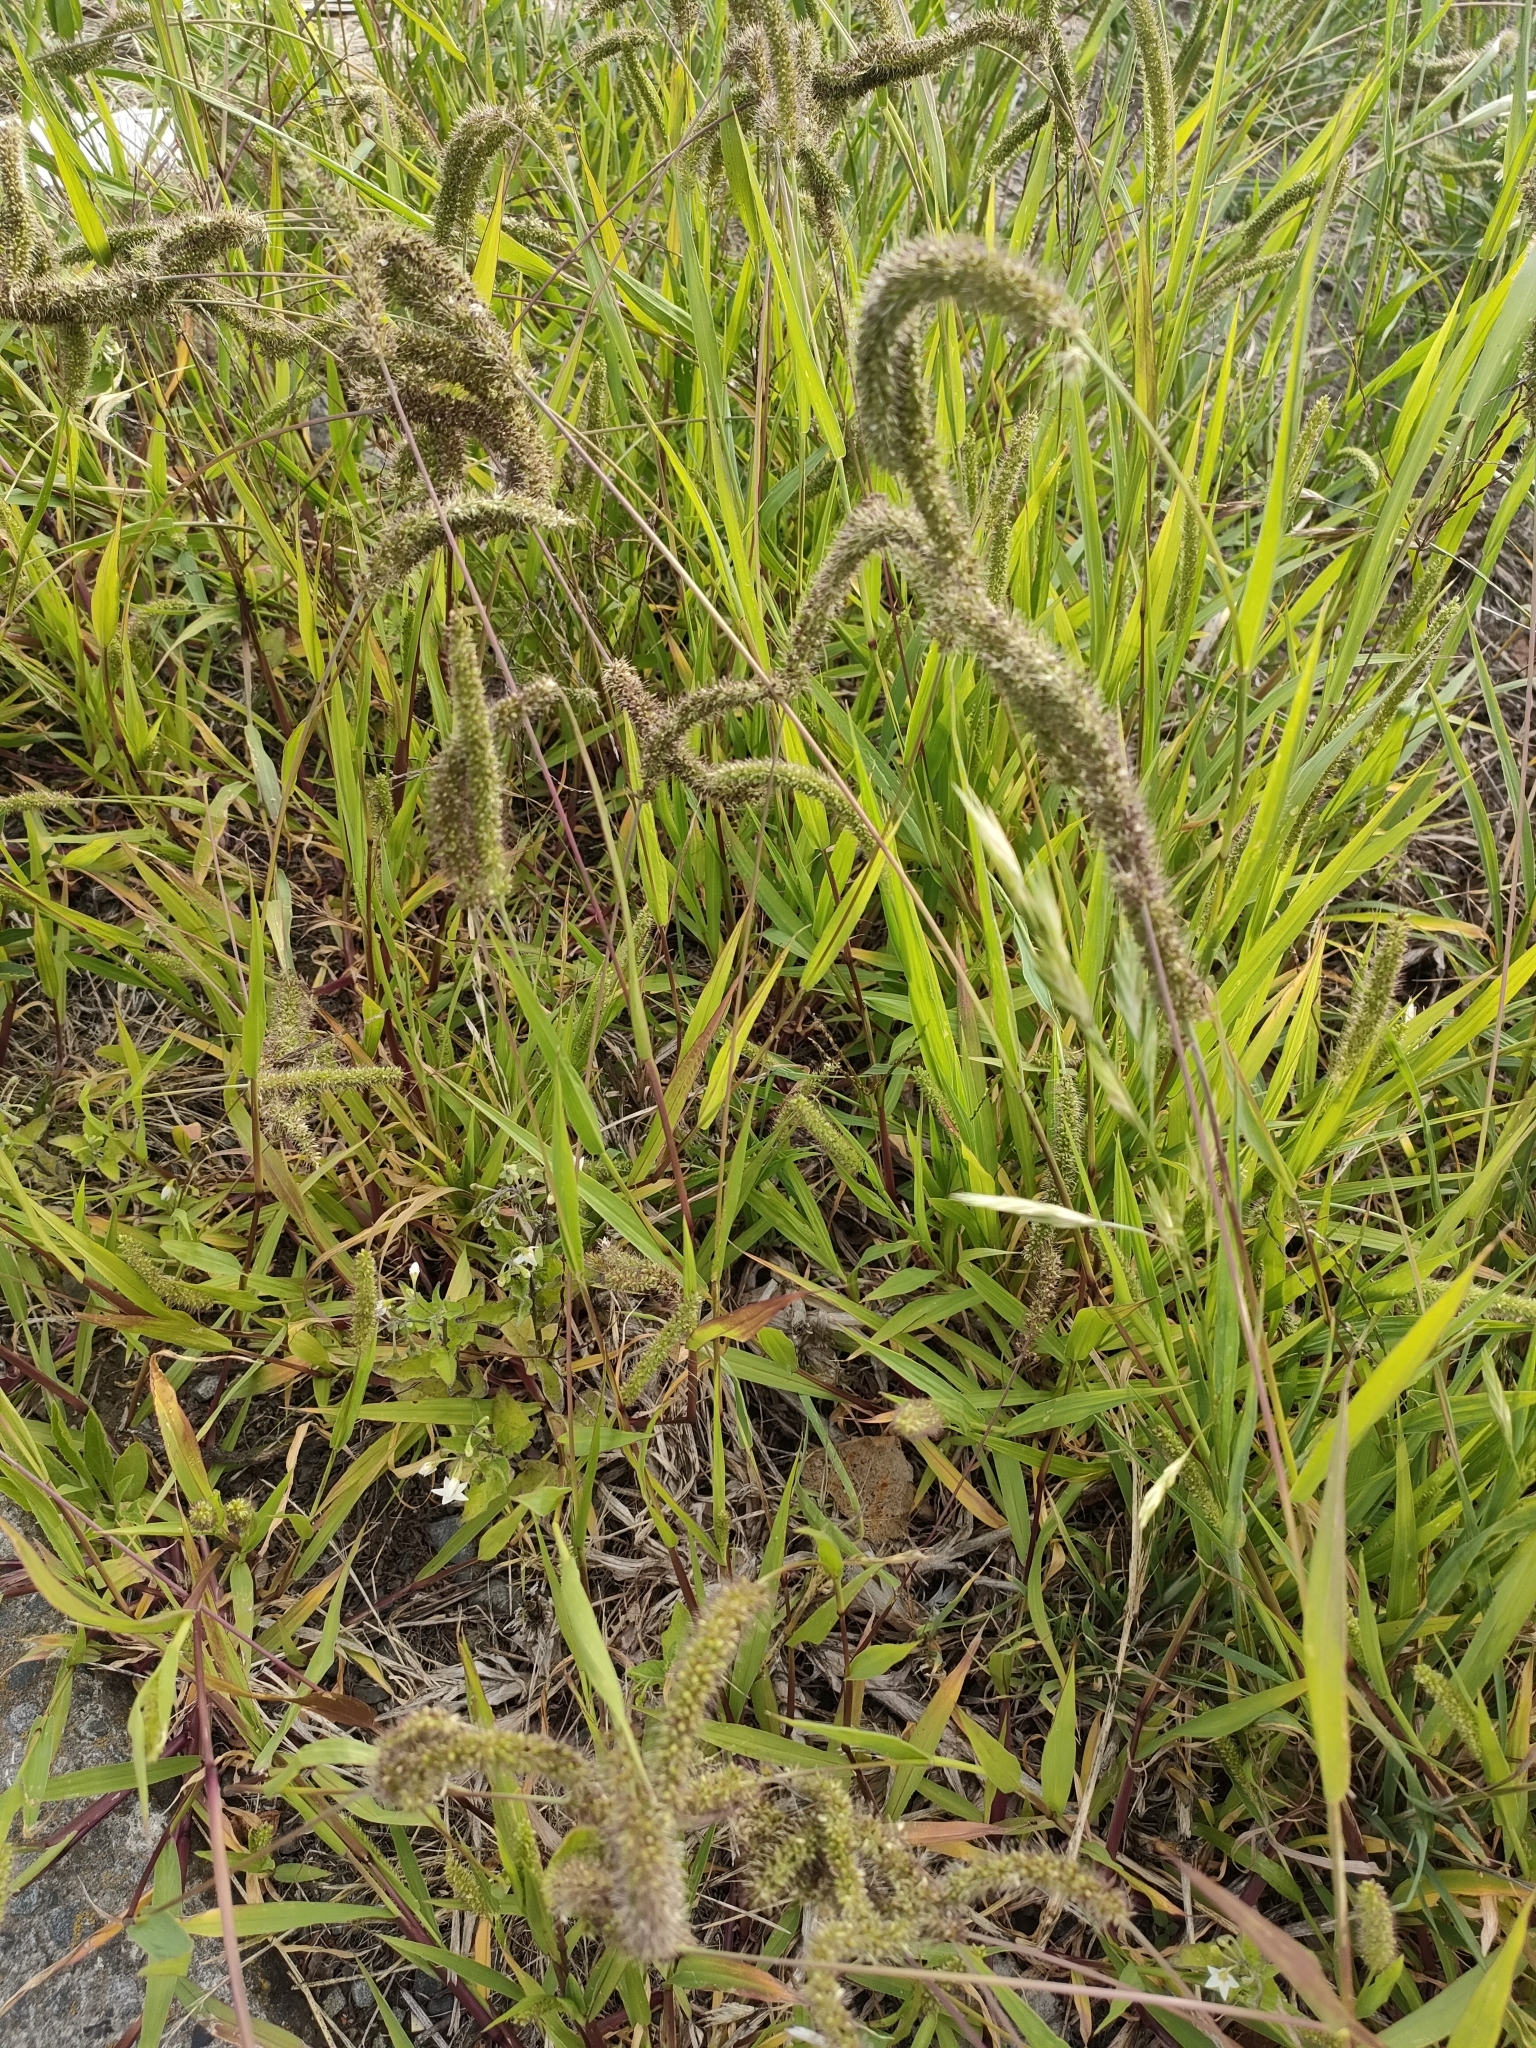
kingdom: Plantae
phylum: Tracheophyta
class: Liliopsida
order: Poales
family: Poaceae
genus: Setaria
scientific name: Setaria verticillata
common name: Hooked bristlegrass
